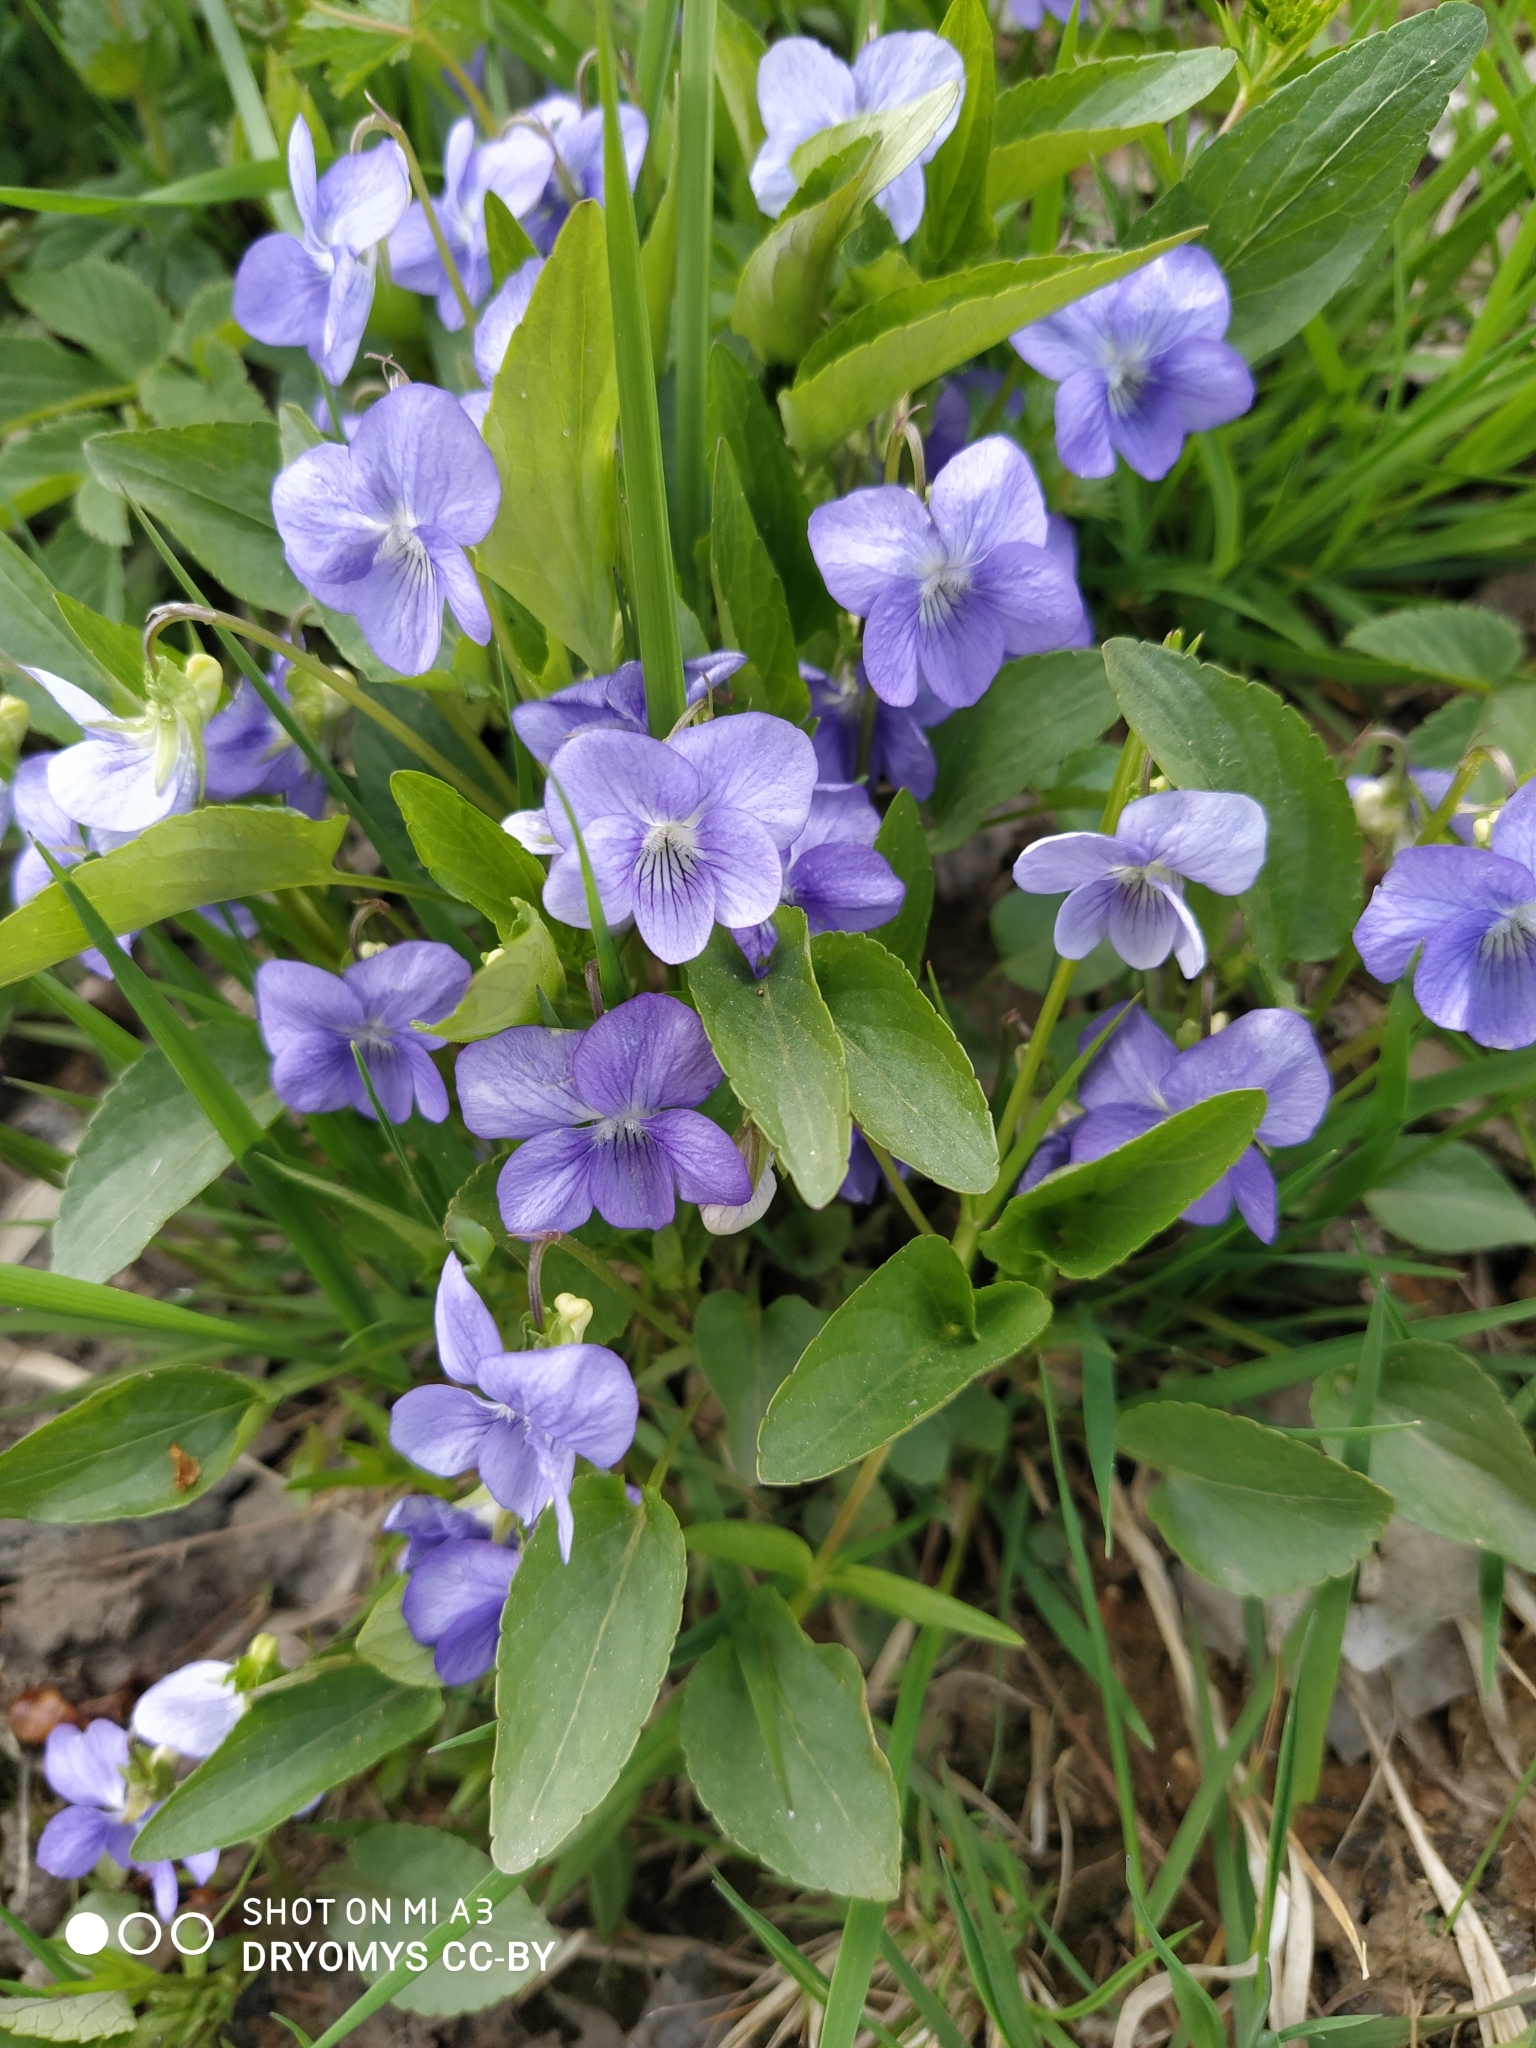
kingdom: Plantae
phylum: Tracheophyta
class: Magnoliopsida
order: Malpighiales
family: Violaceae
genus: Viola
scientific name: Viola canina
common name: Heath dog-violet
